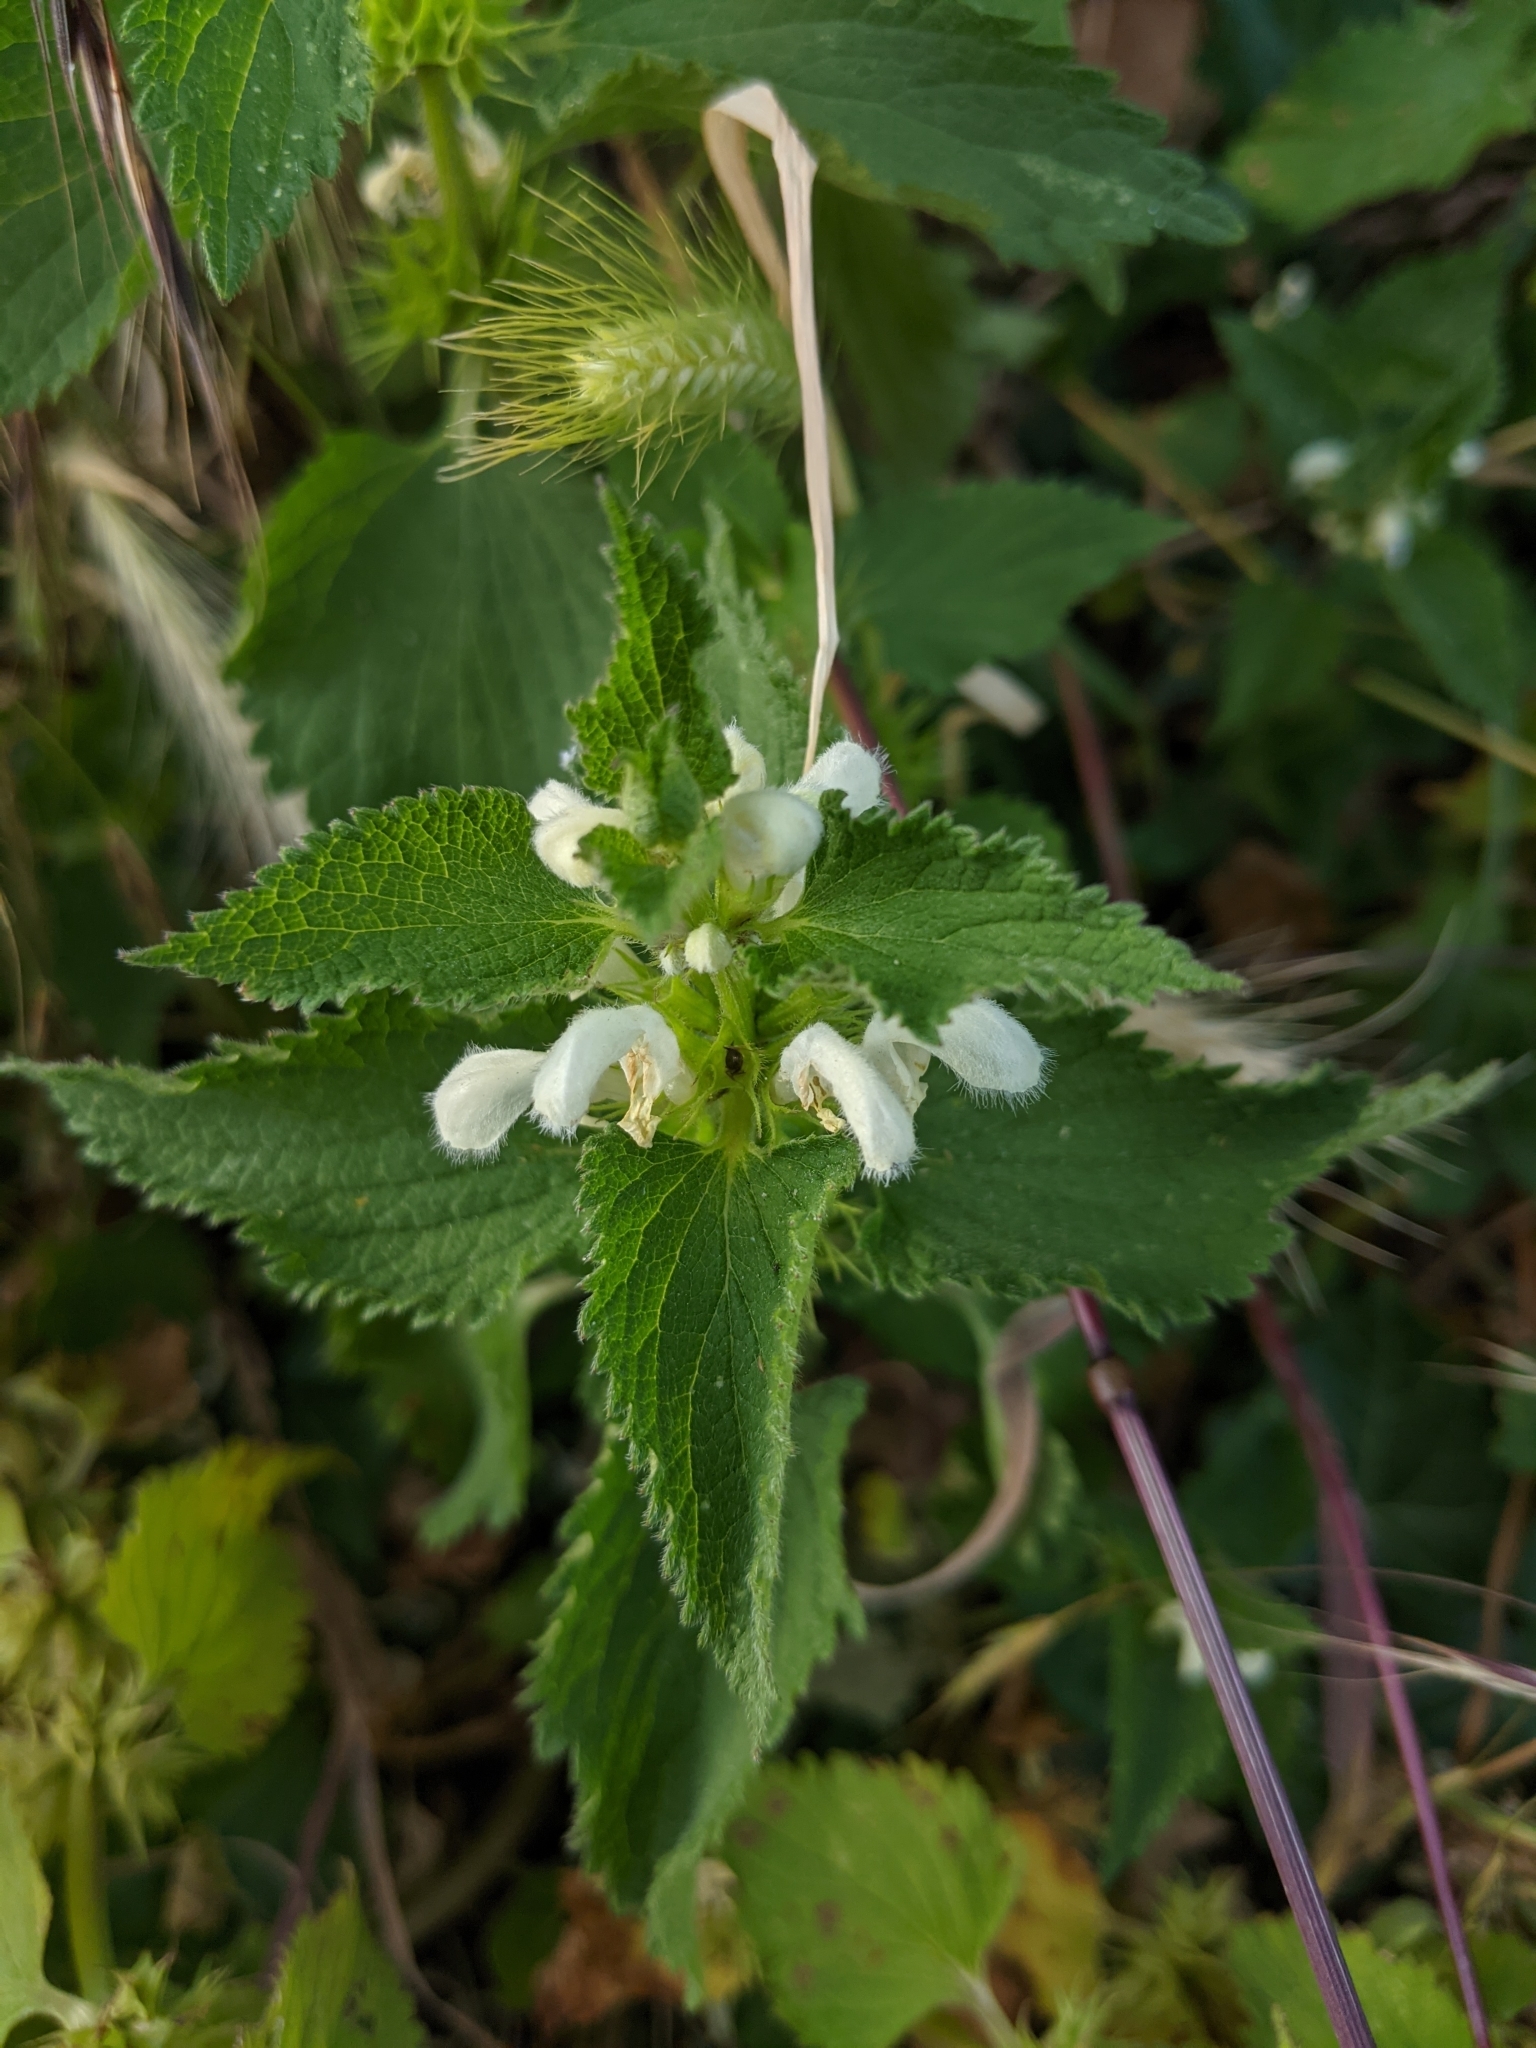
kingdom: Plantae
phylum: Tracheophyta
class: Magnoliopsida
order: Lamiales
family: Lamiaceae
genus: Lamium
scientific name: Lamium album
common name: White dead-nettle
